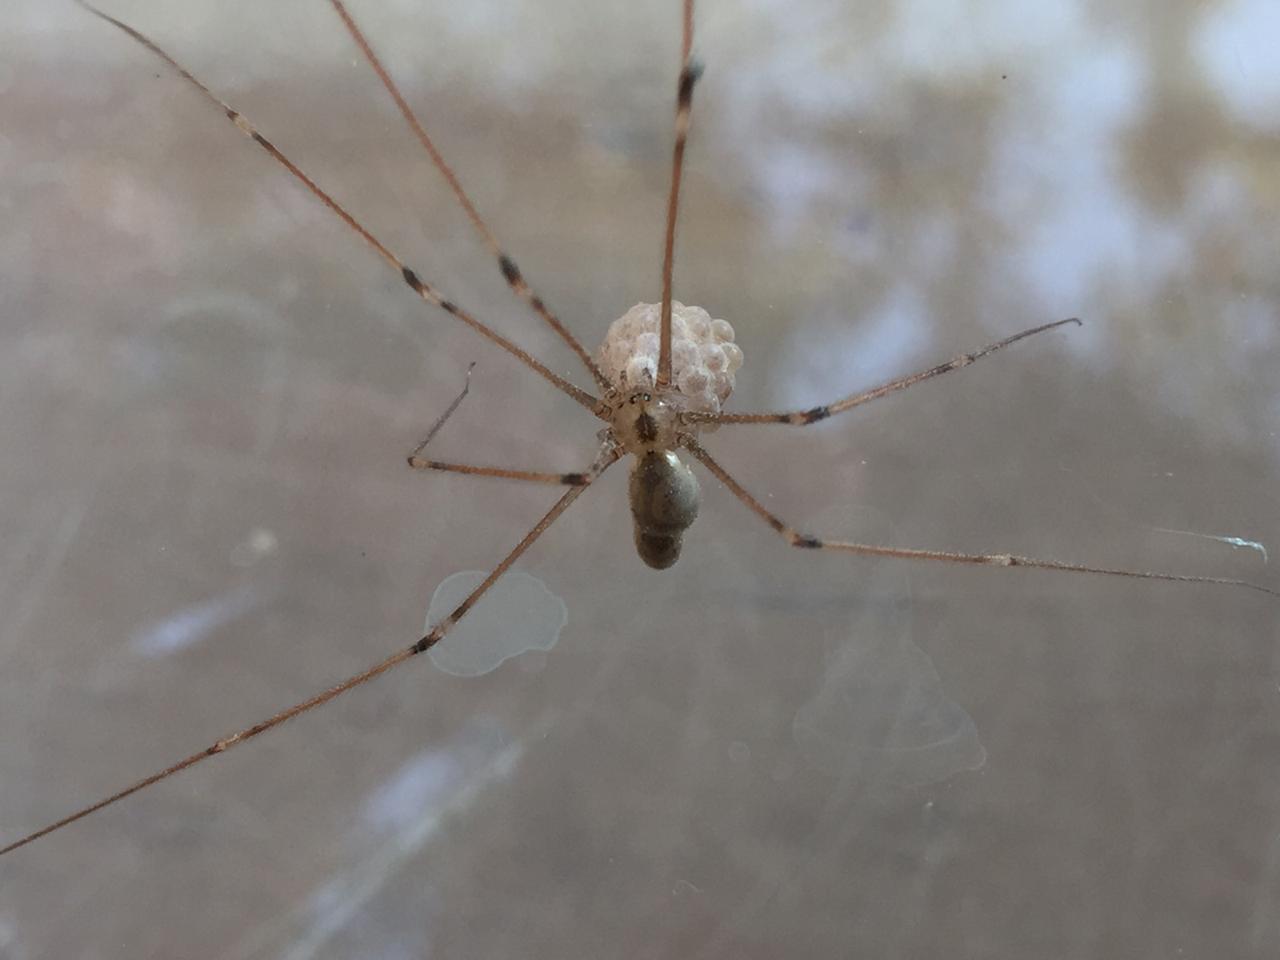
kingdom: Animalia
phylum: Arthropoda
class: Arachnida
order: Araneae
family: Pholcidae
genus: Pholcus
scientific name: Pholcus phalangioides
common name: Longbodied cellar spider
